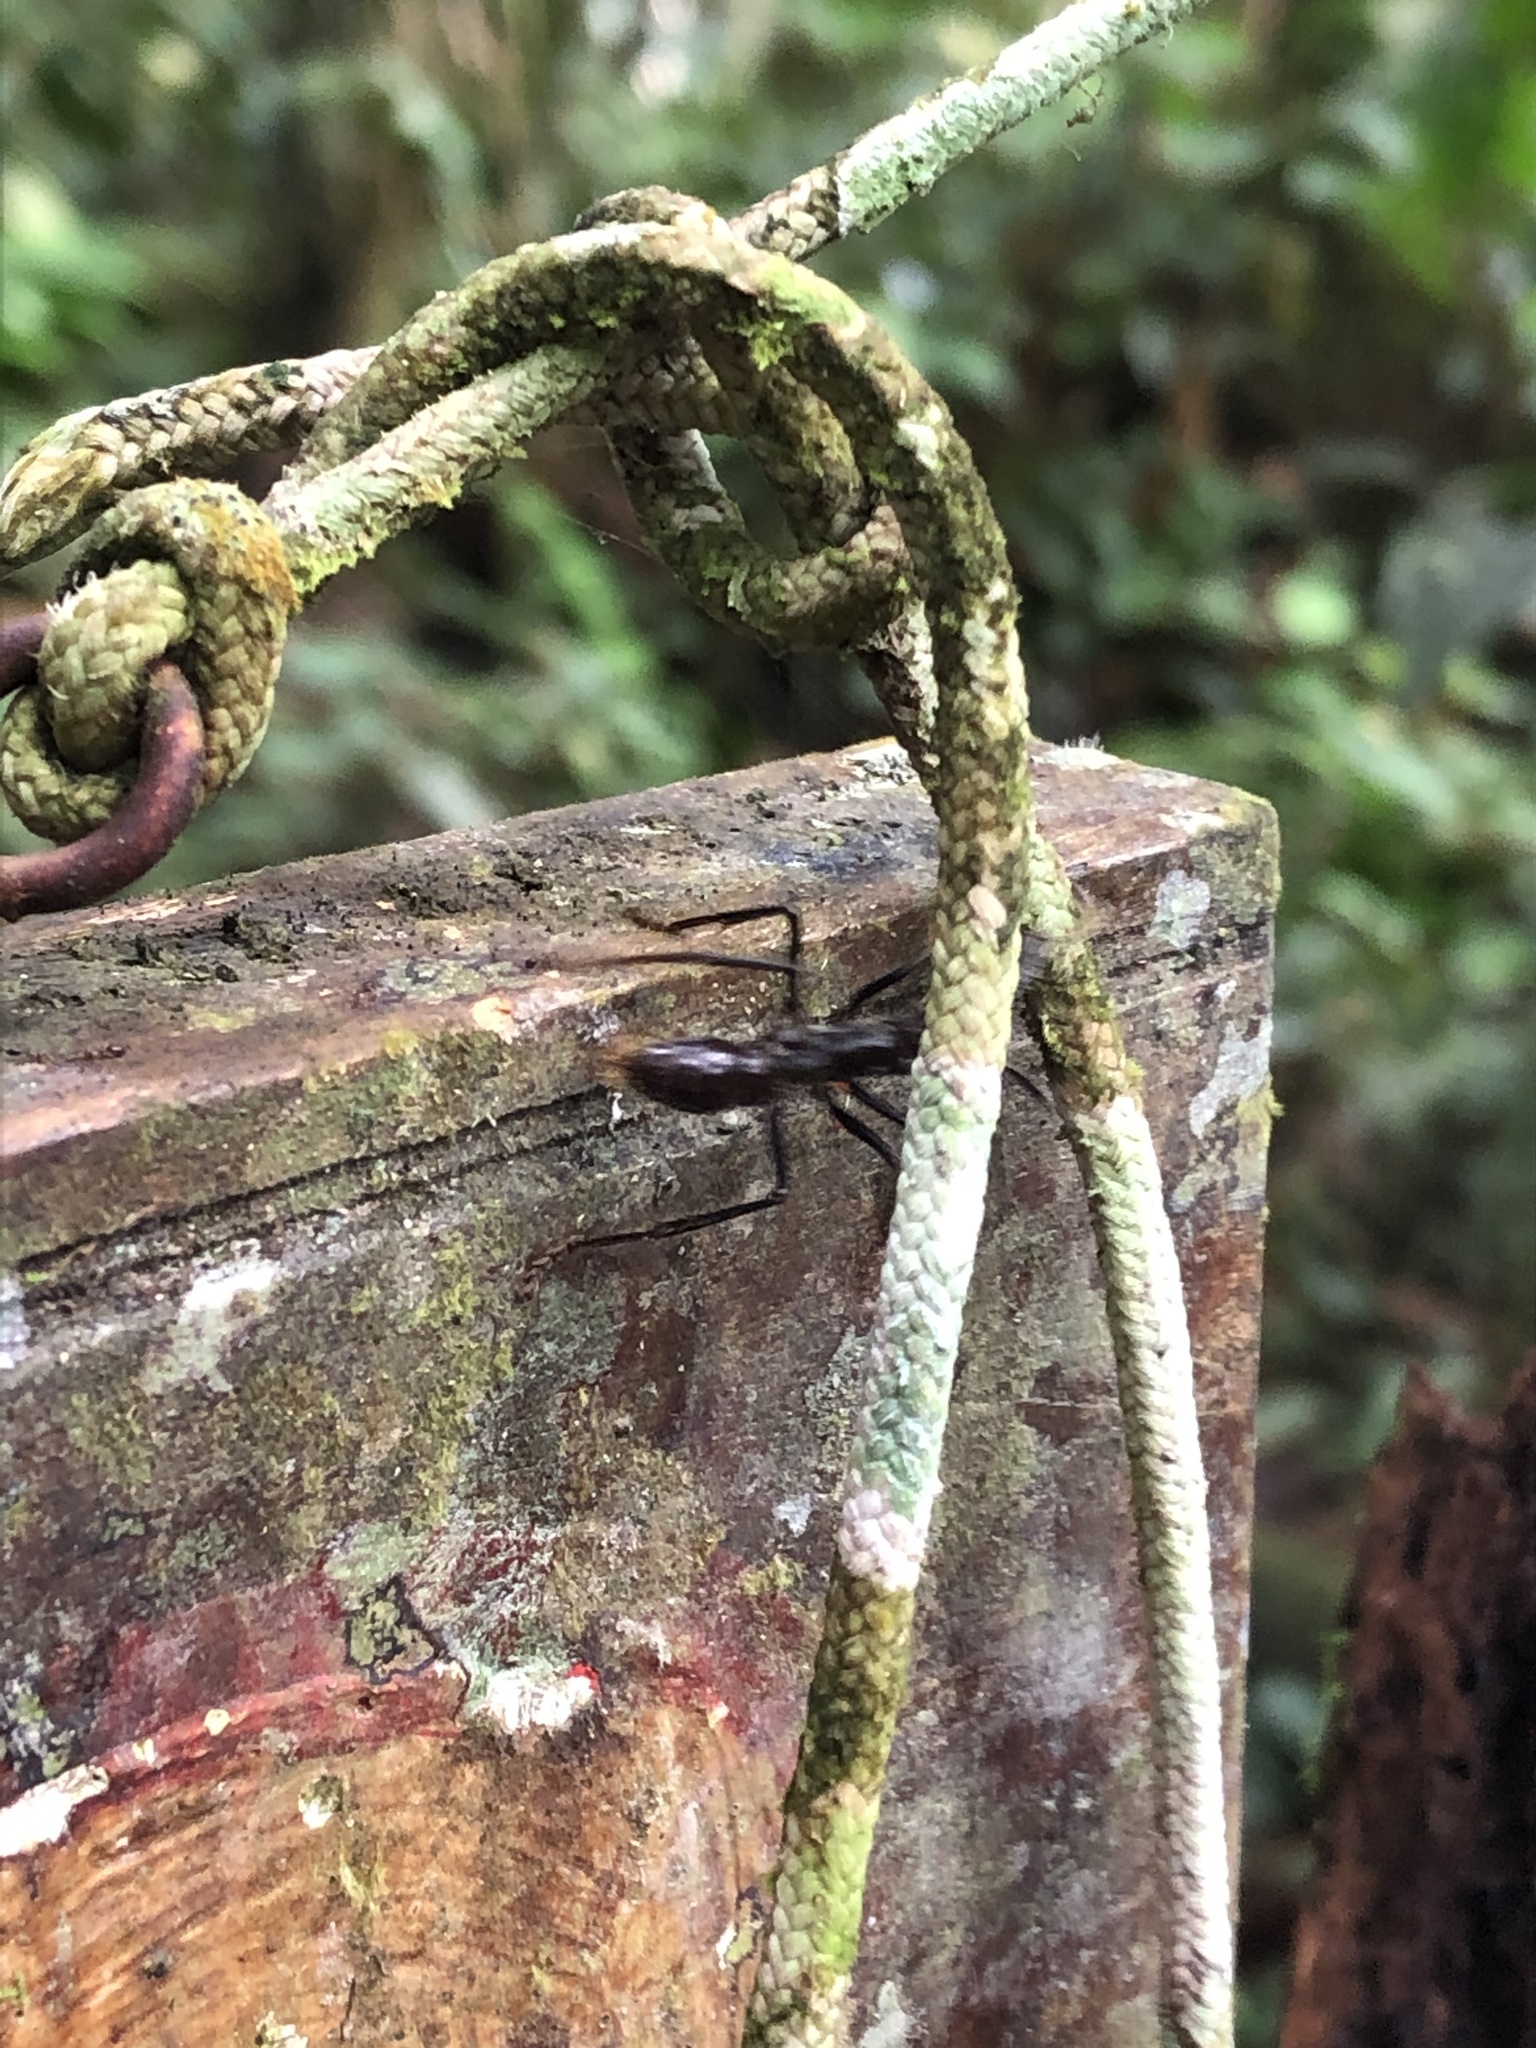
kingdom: Animalia
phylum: Arthropoda
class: Insecta
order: Hymenoptera
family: Formicidae
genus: Paraponera
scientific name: Paraponera clavata
